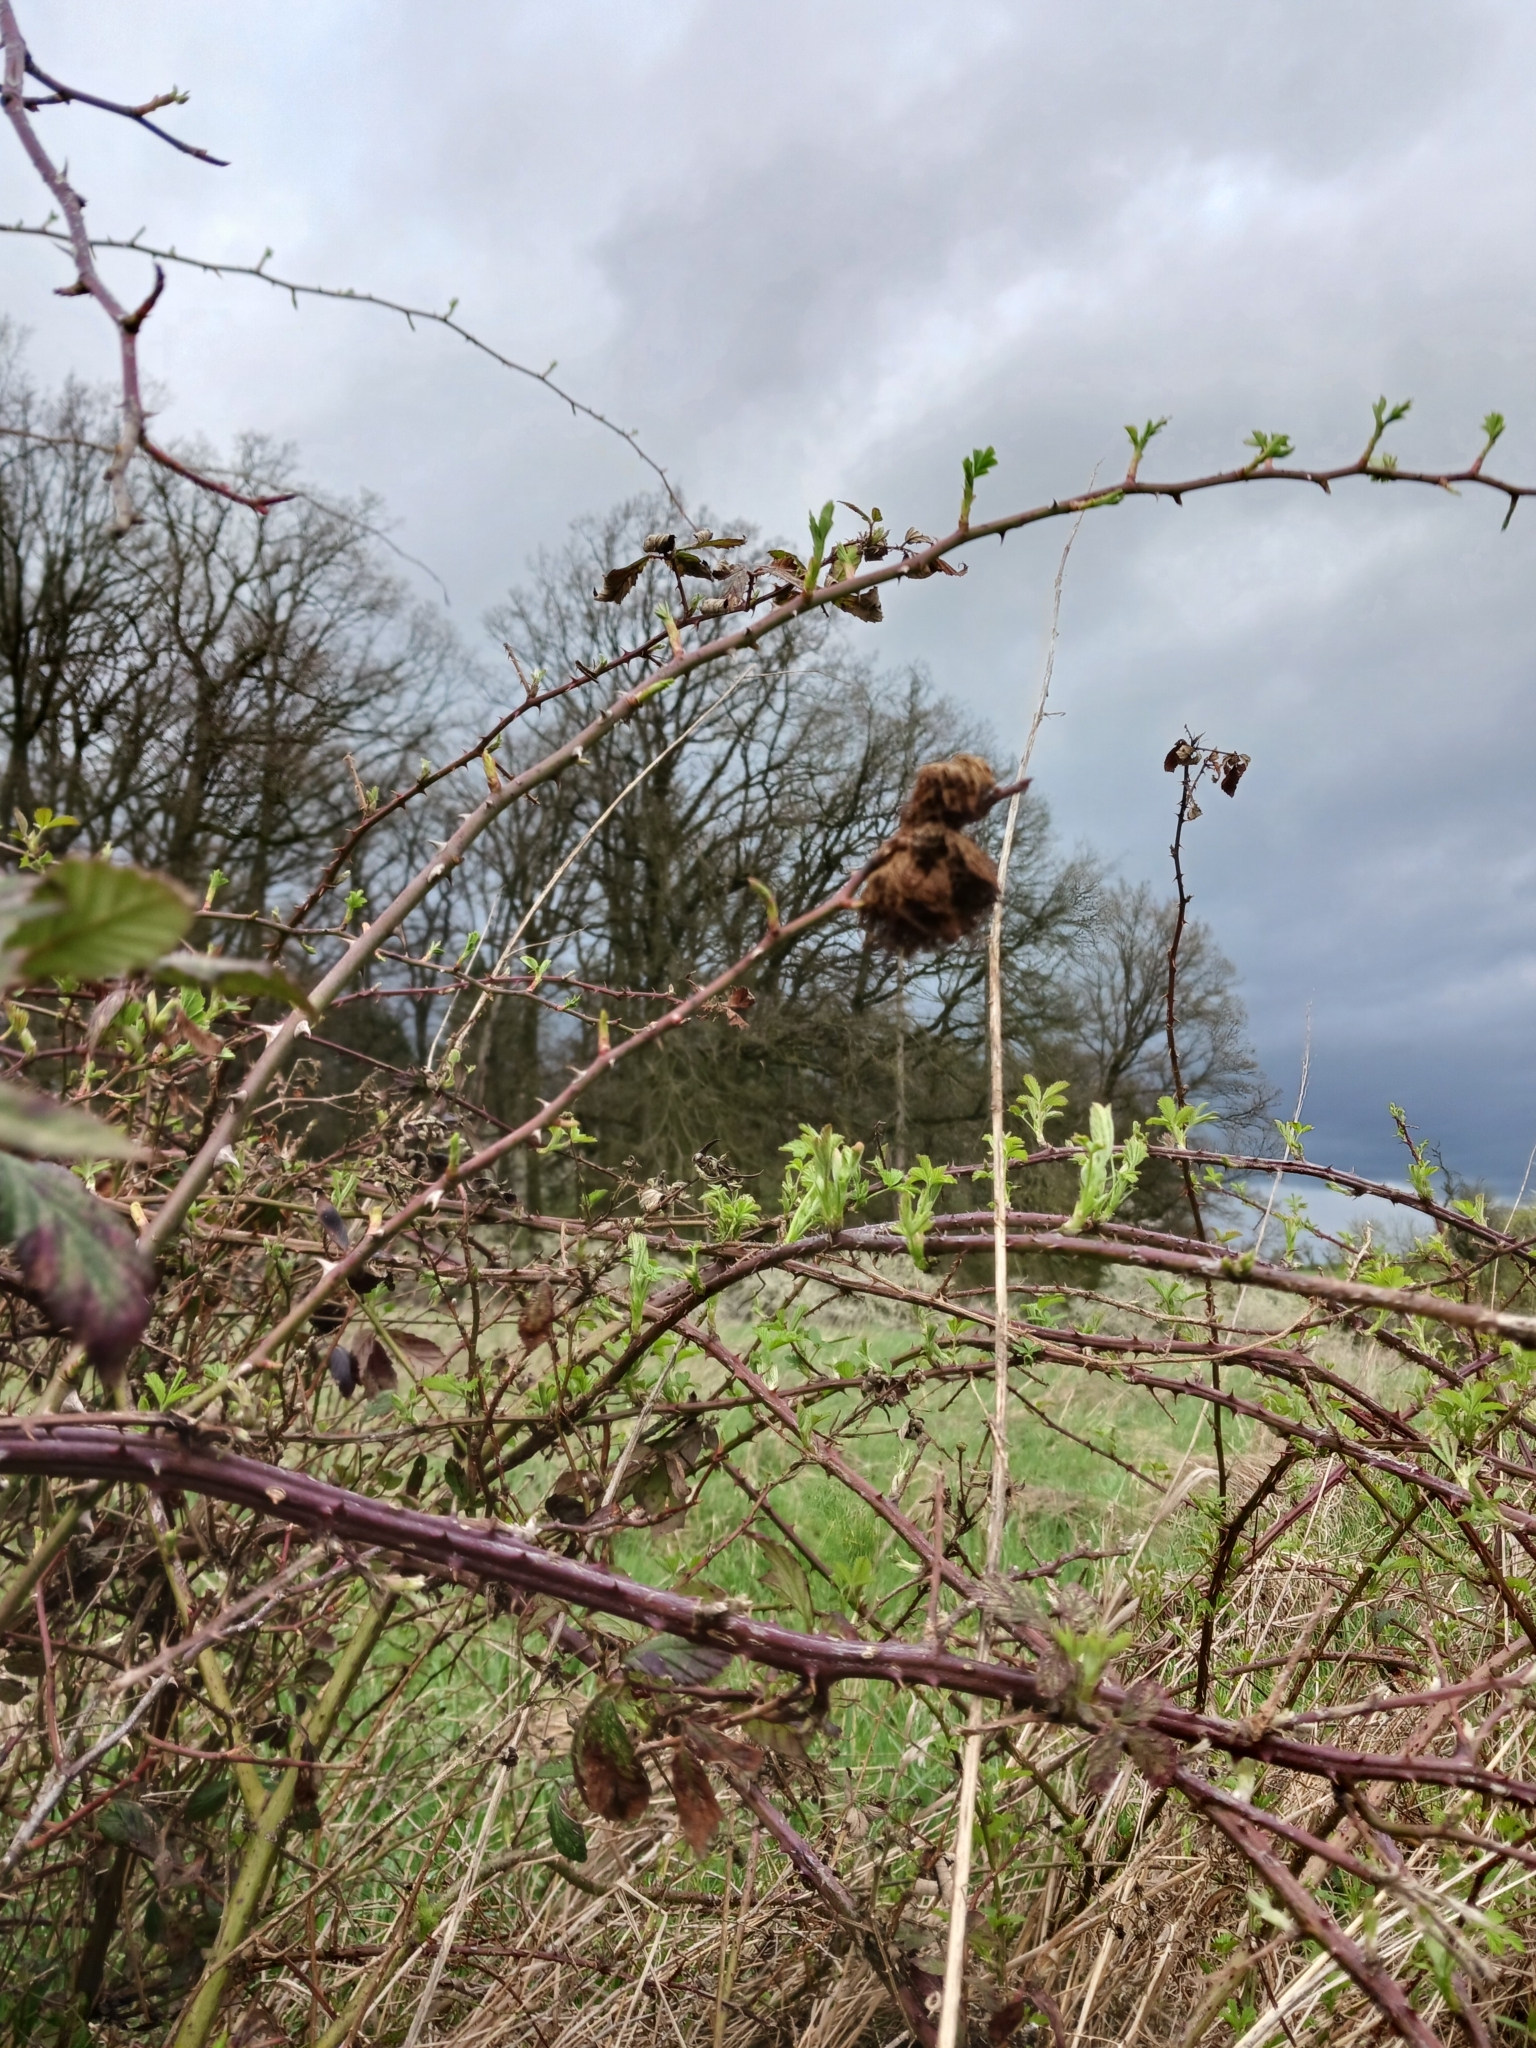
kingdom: Animalia
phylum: Arthropoda
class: Insecta
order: Hymenoptera
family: Cynipidae
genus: Diplolepis
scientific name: Diplolepis rosae
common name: Bedeguar gall
